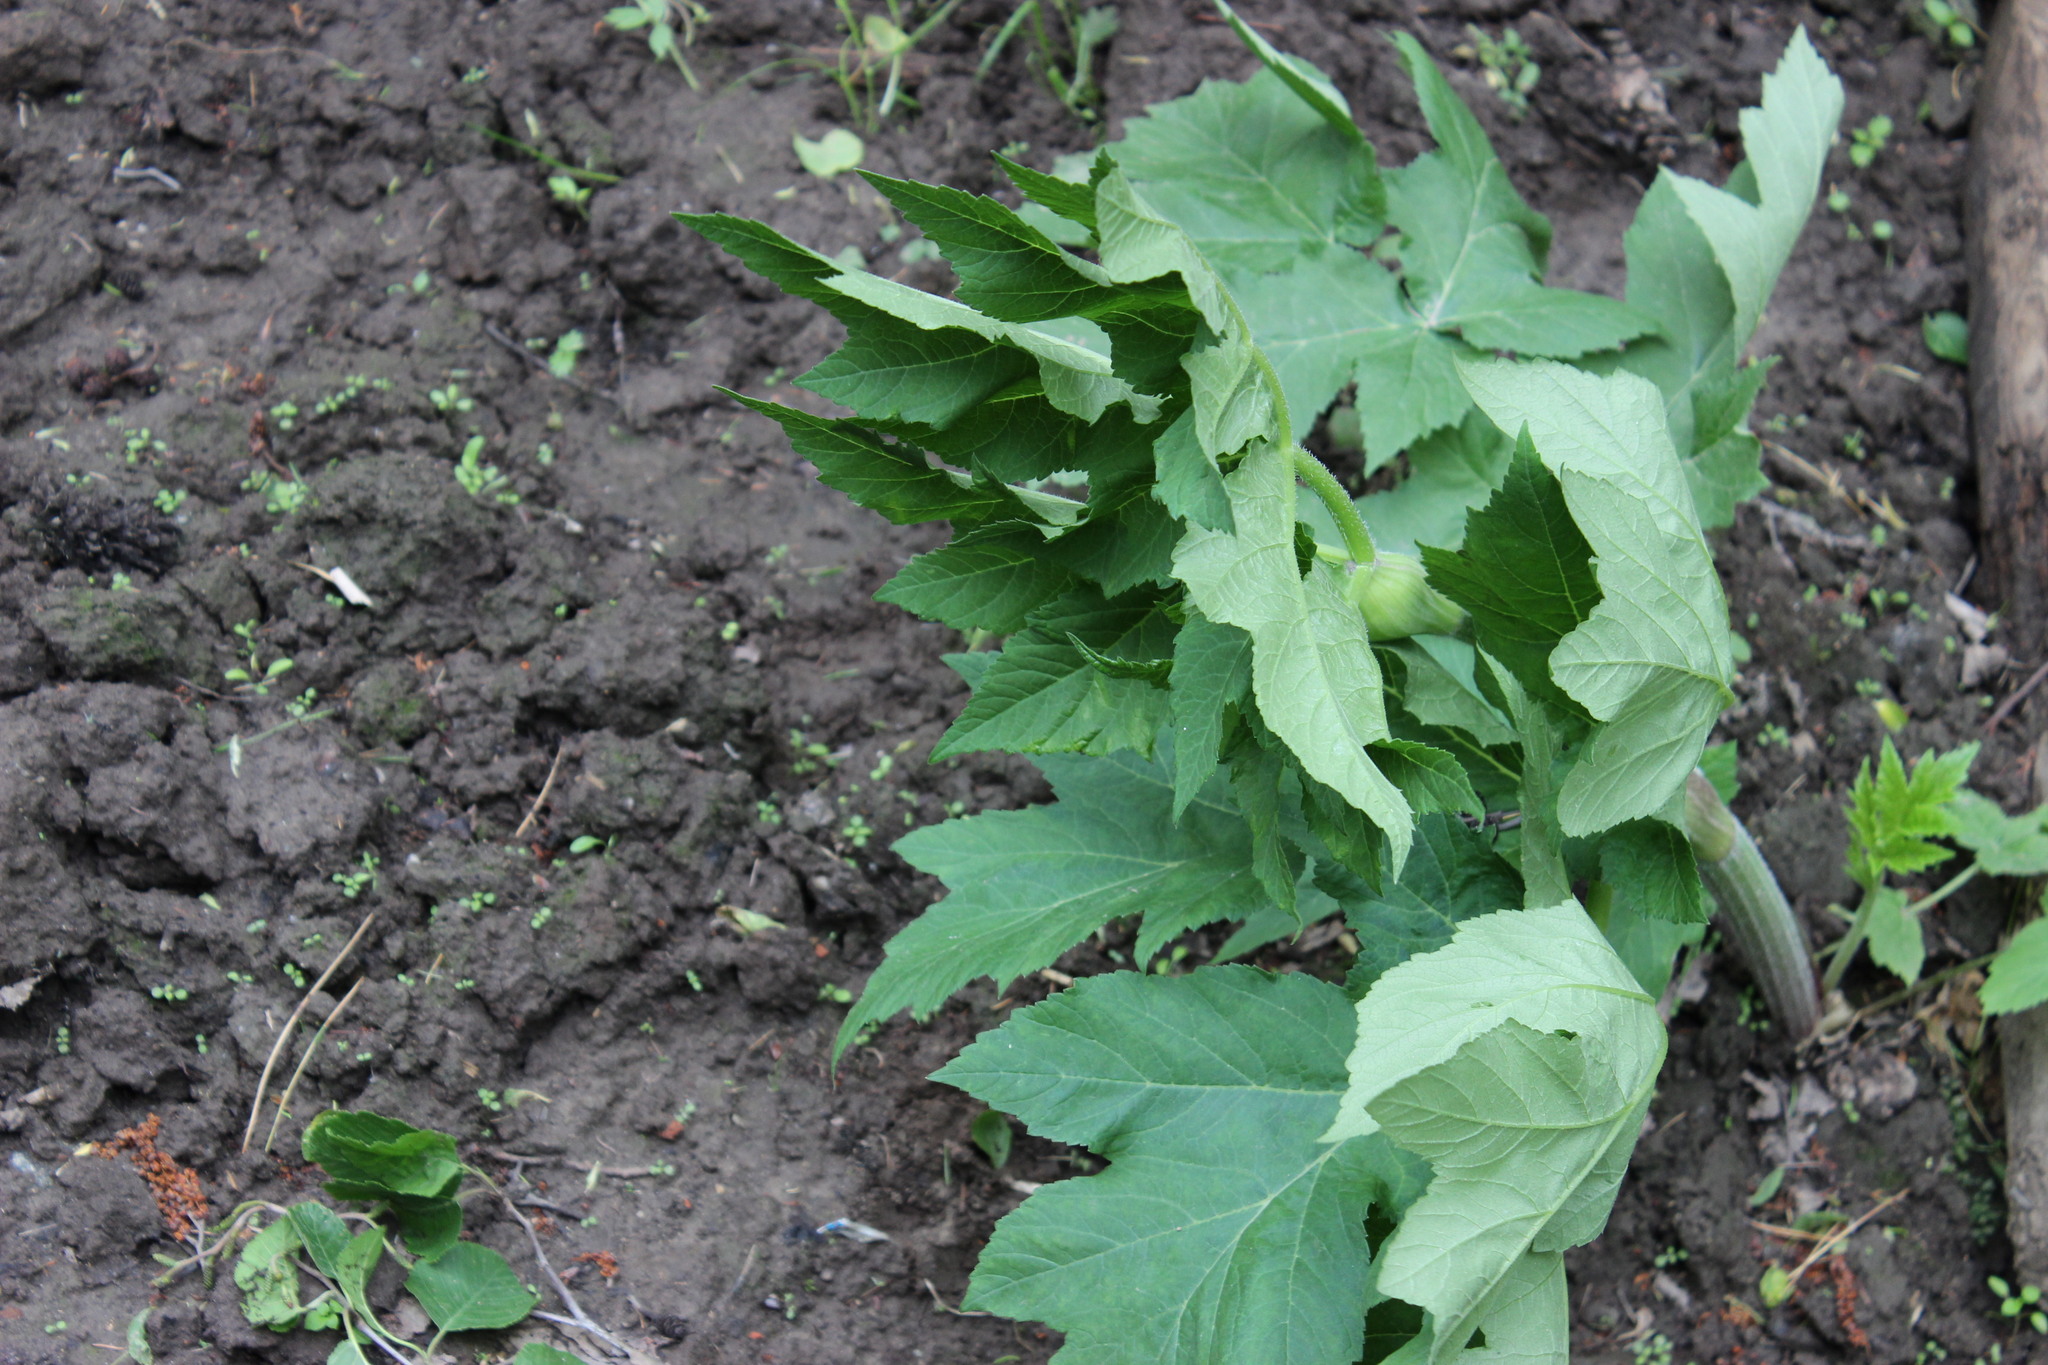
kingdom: Plantae
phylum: Tracheophyta
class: Magnoliopsida
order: Apiales
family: Apiaceae
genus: Heracleum
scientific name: Heracleum dissectum
